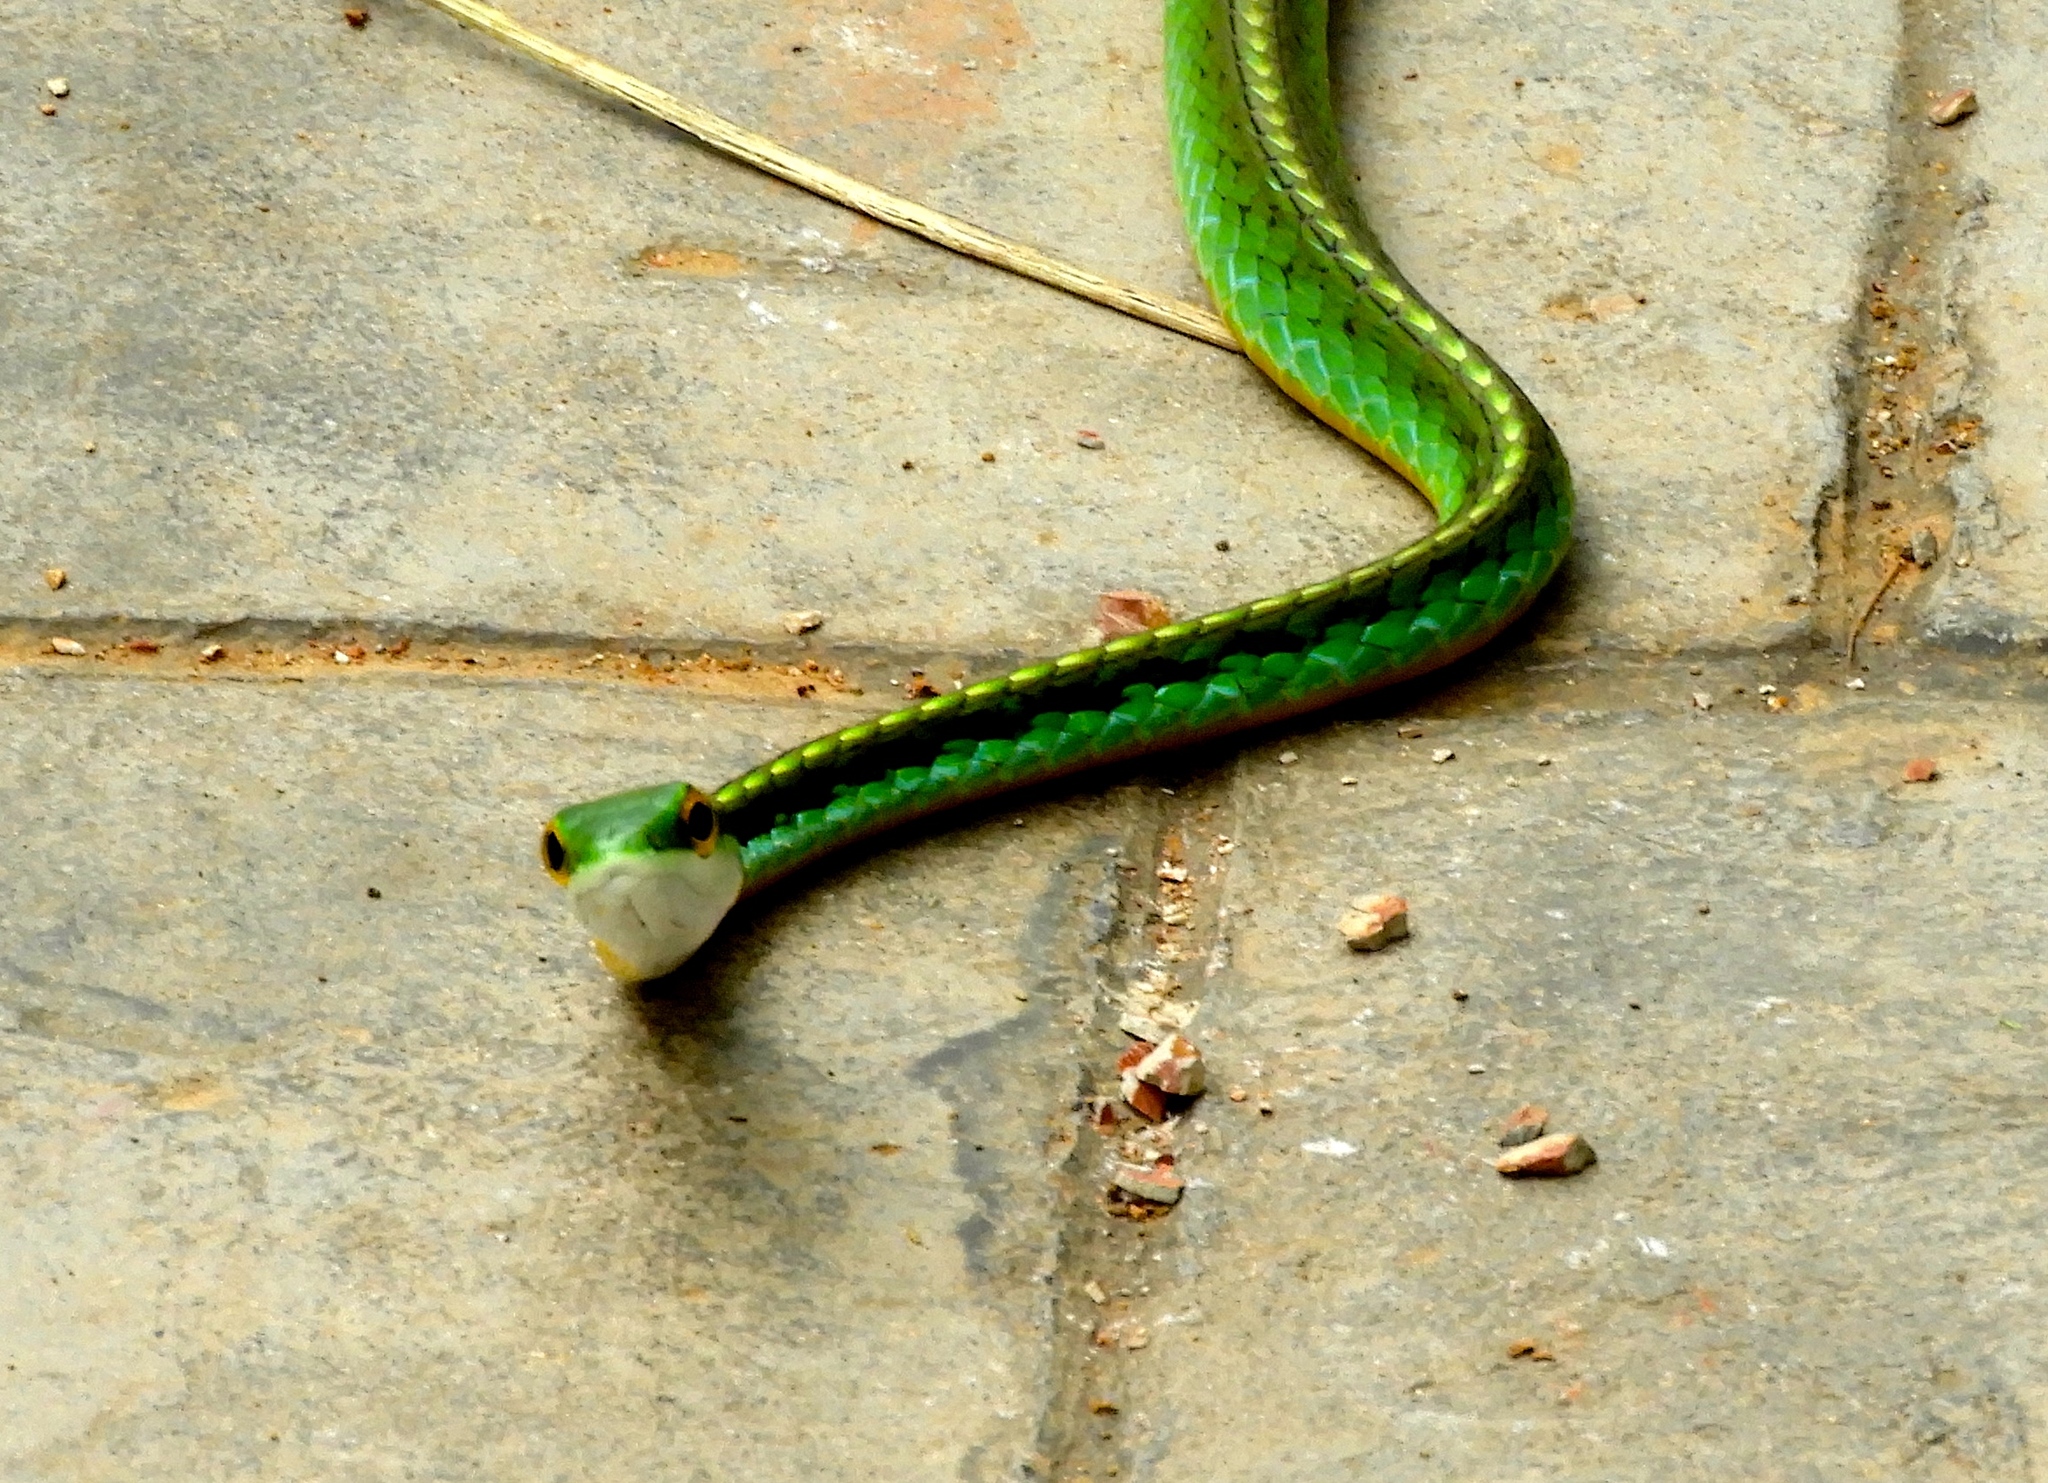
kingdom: Animalia
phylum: Chordata
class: Squamata
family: Colubridae
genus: Leptophis
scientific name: Leptophis diplotropis
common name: Pacific coast parrot snake
